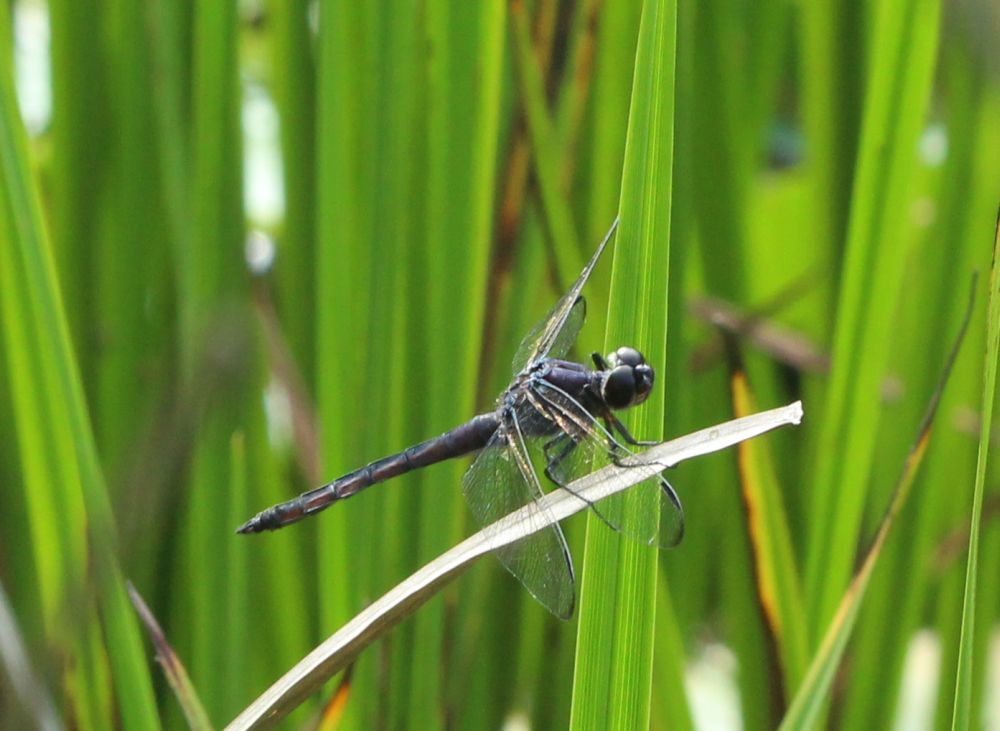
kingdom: Animalia
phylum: Arthropoda
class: Insecta
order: Odonata
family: Libellulidae
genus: Libellula
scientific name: Libellula incesta
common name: Slaty skimmer
